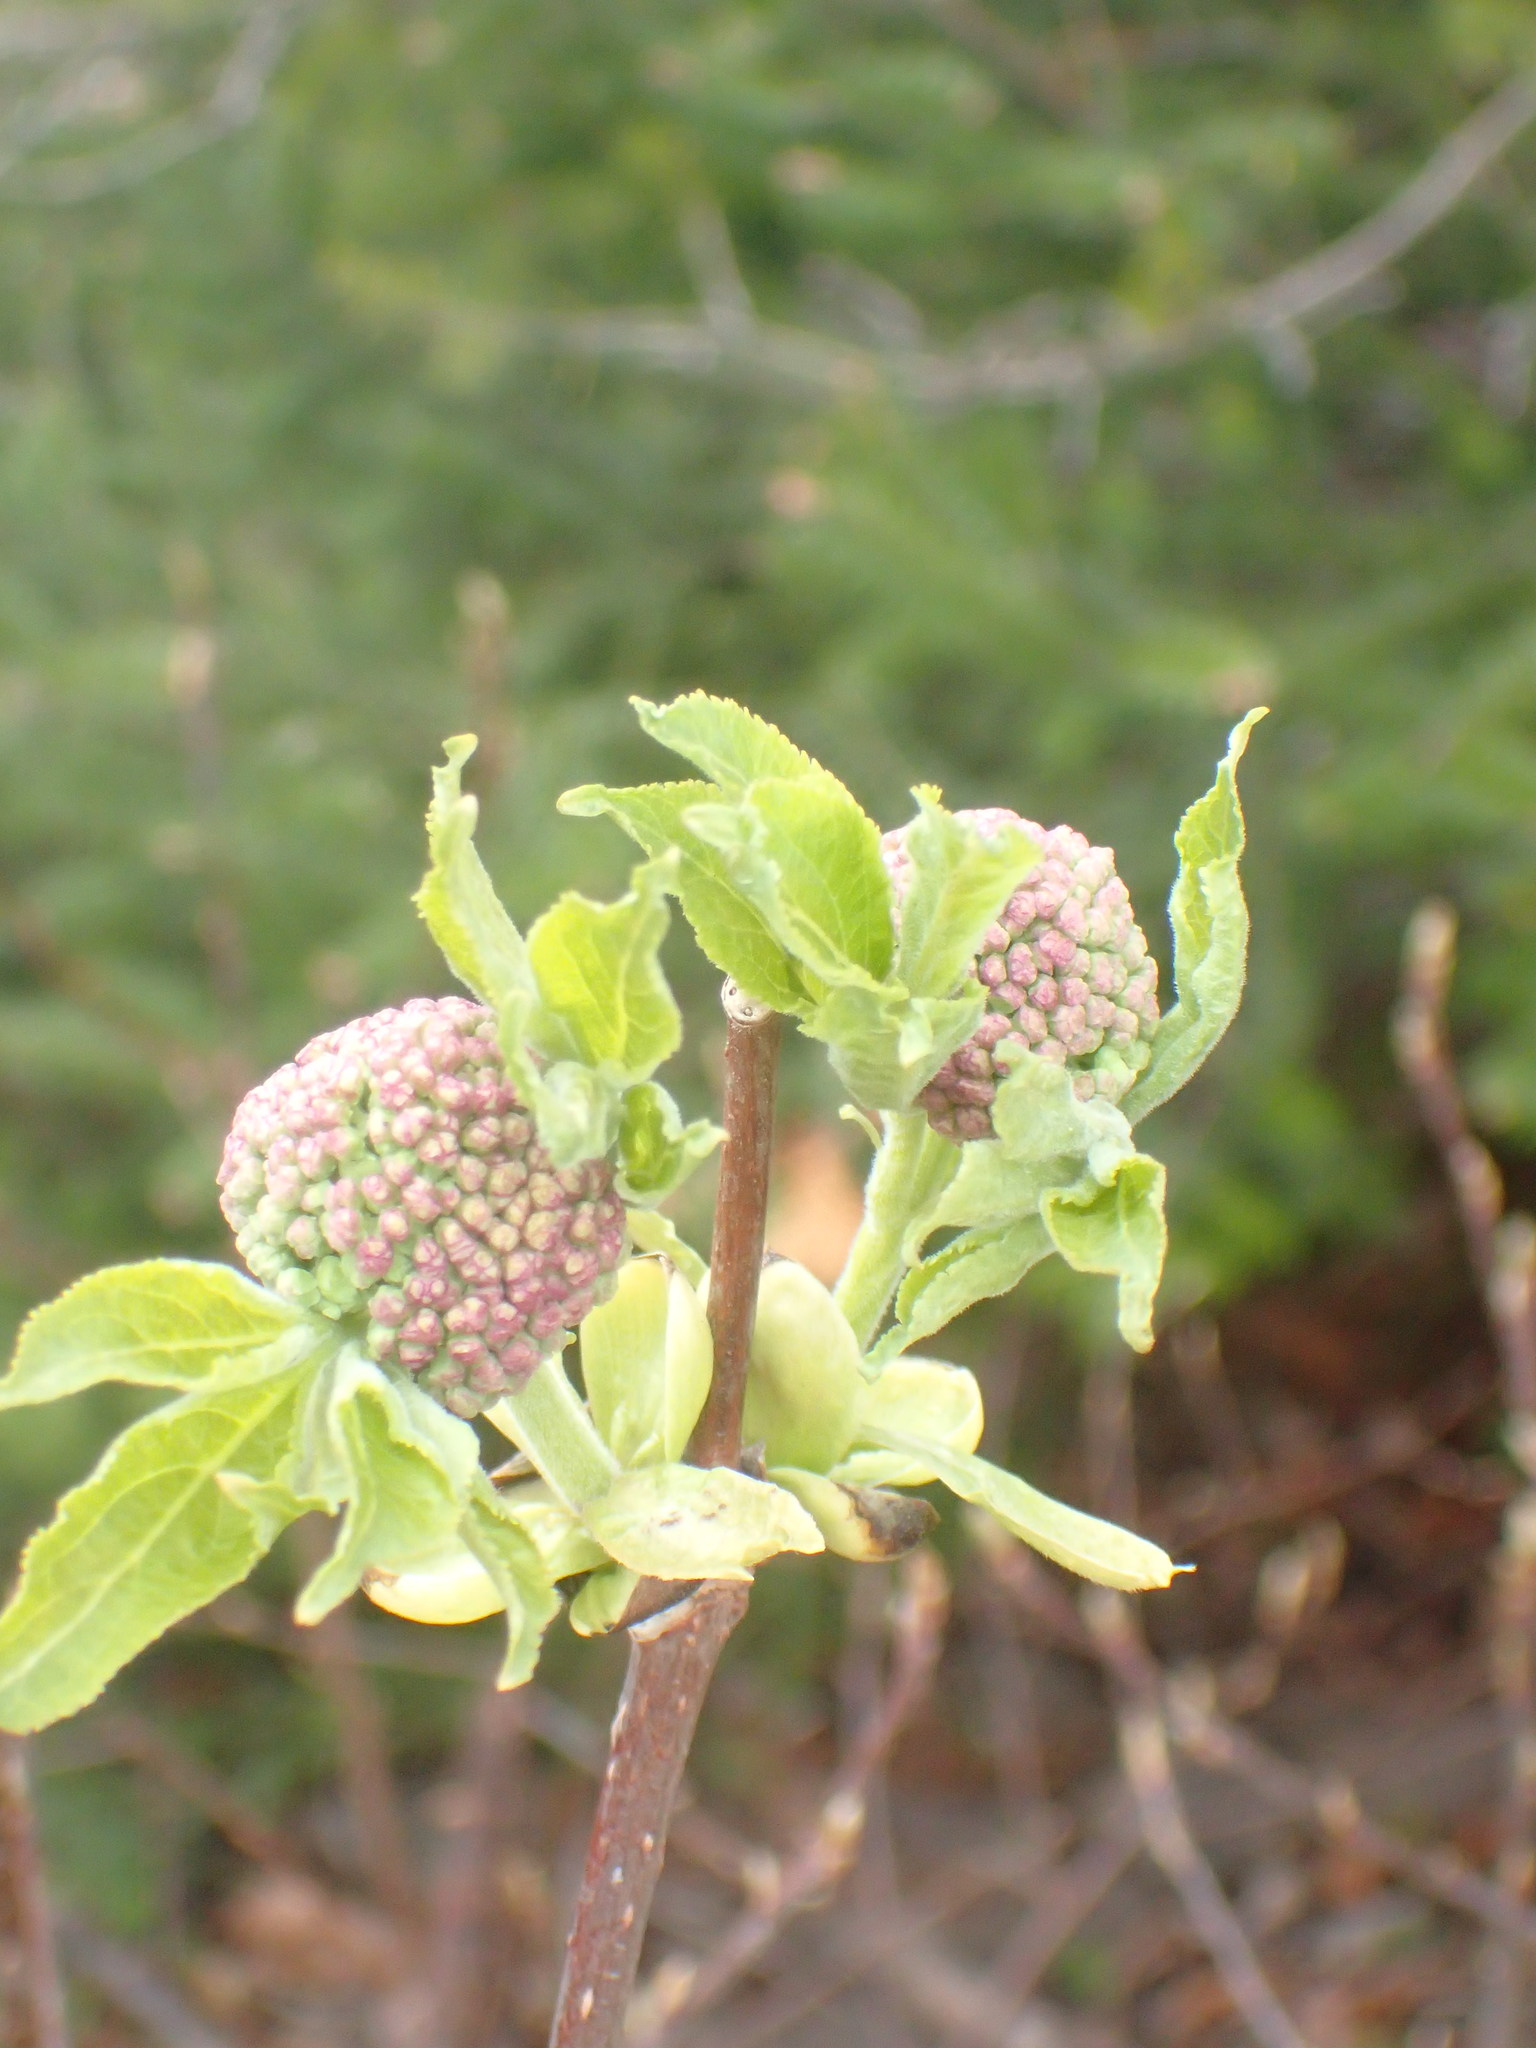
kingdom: Plantae
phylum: Tracheophyta
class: Magnoliopsida
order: Dipsacales
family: Viburnaceae
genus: Sambucus
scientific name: Sambucus racemosa
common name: Red-berried elder
